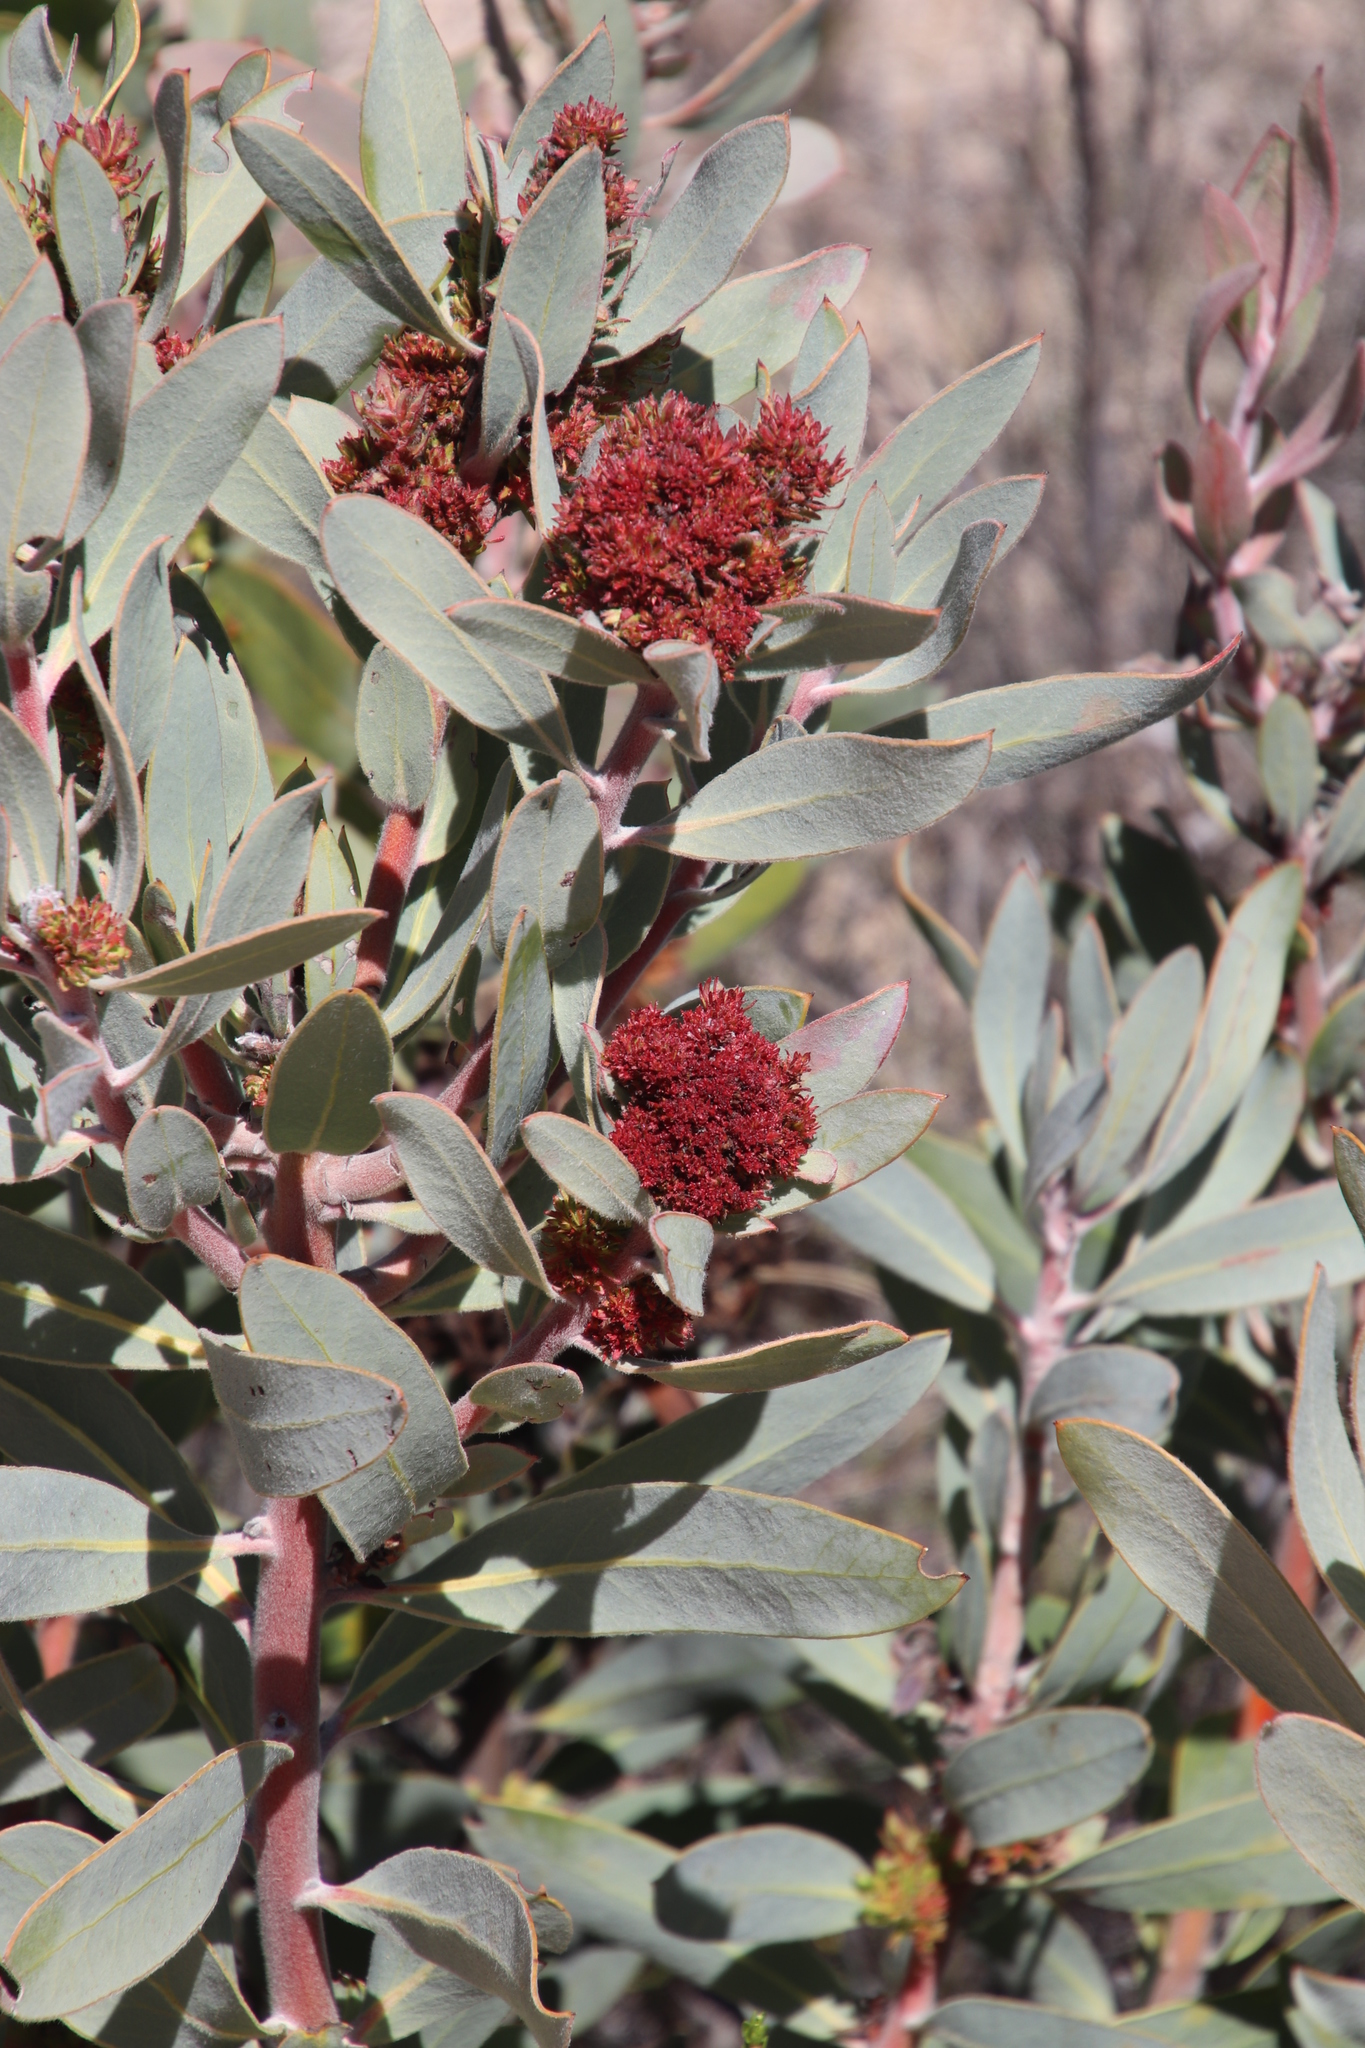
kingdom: Plantae
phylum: Tracheophyta
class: Magnoliopsida
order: Proteales
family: Proteaceae
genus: Protea
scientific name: Protea nitida
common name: Tree protea
